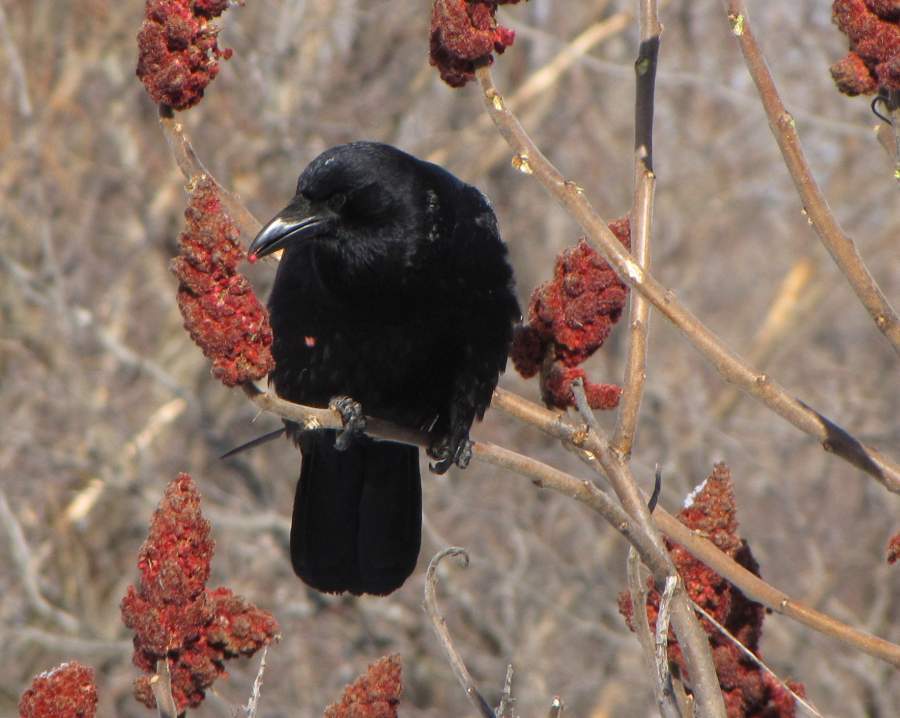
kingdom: Animalia
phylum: Chordata
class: Aves
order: Passeriformes
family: Corvidae
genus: Corvus
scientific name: Corvus brachyrhynchos
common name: American crow
